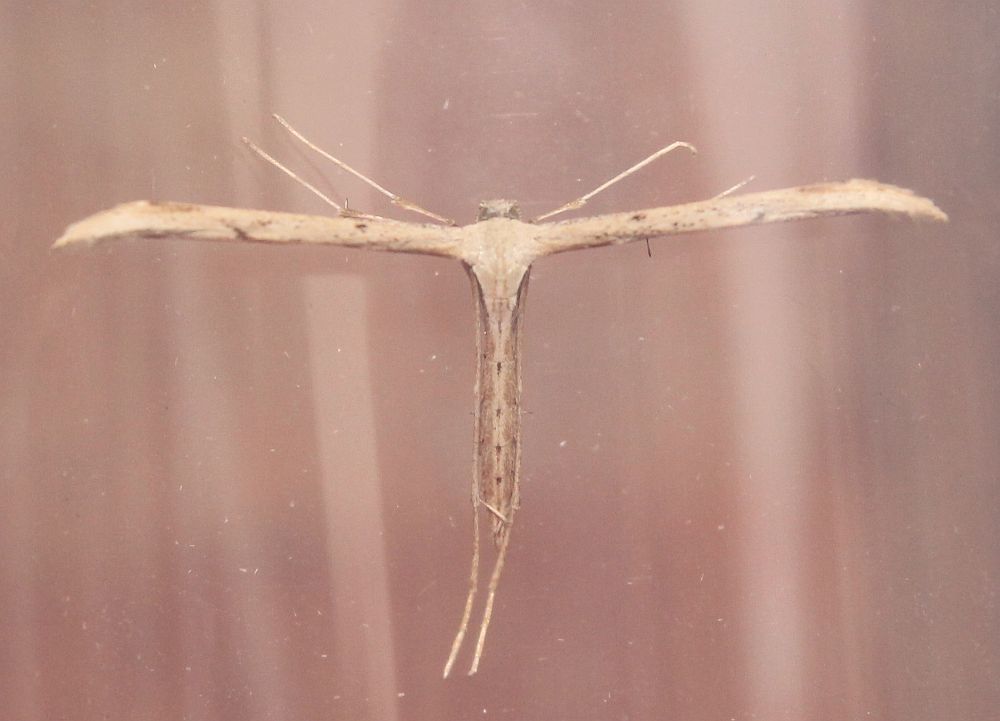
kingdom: Animalia
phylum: Arthropoda
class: Insecta
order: Lepidoptera
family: Pterophoridae
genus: Emmelina
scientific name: Emmelina monodactyla
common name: Common plume
